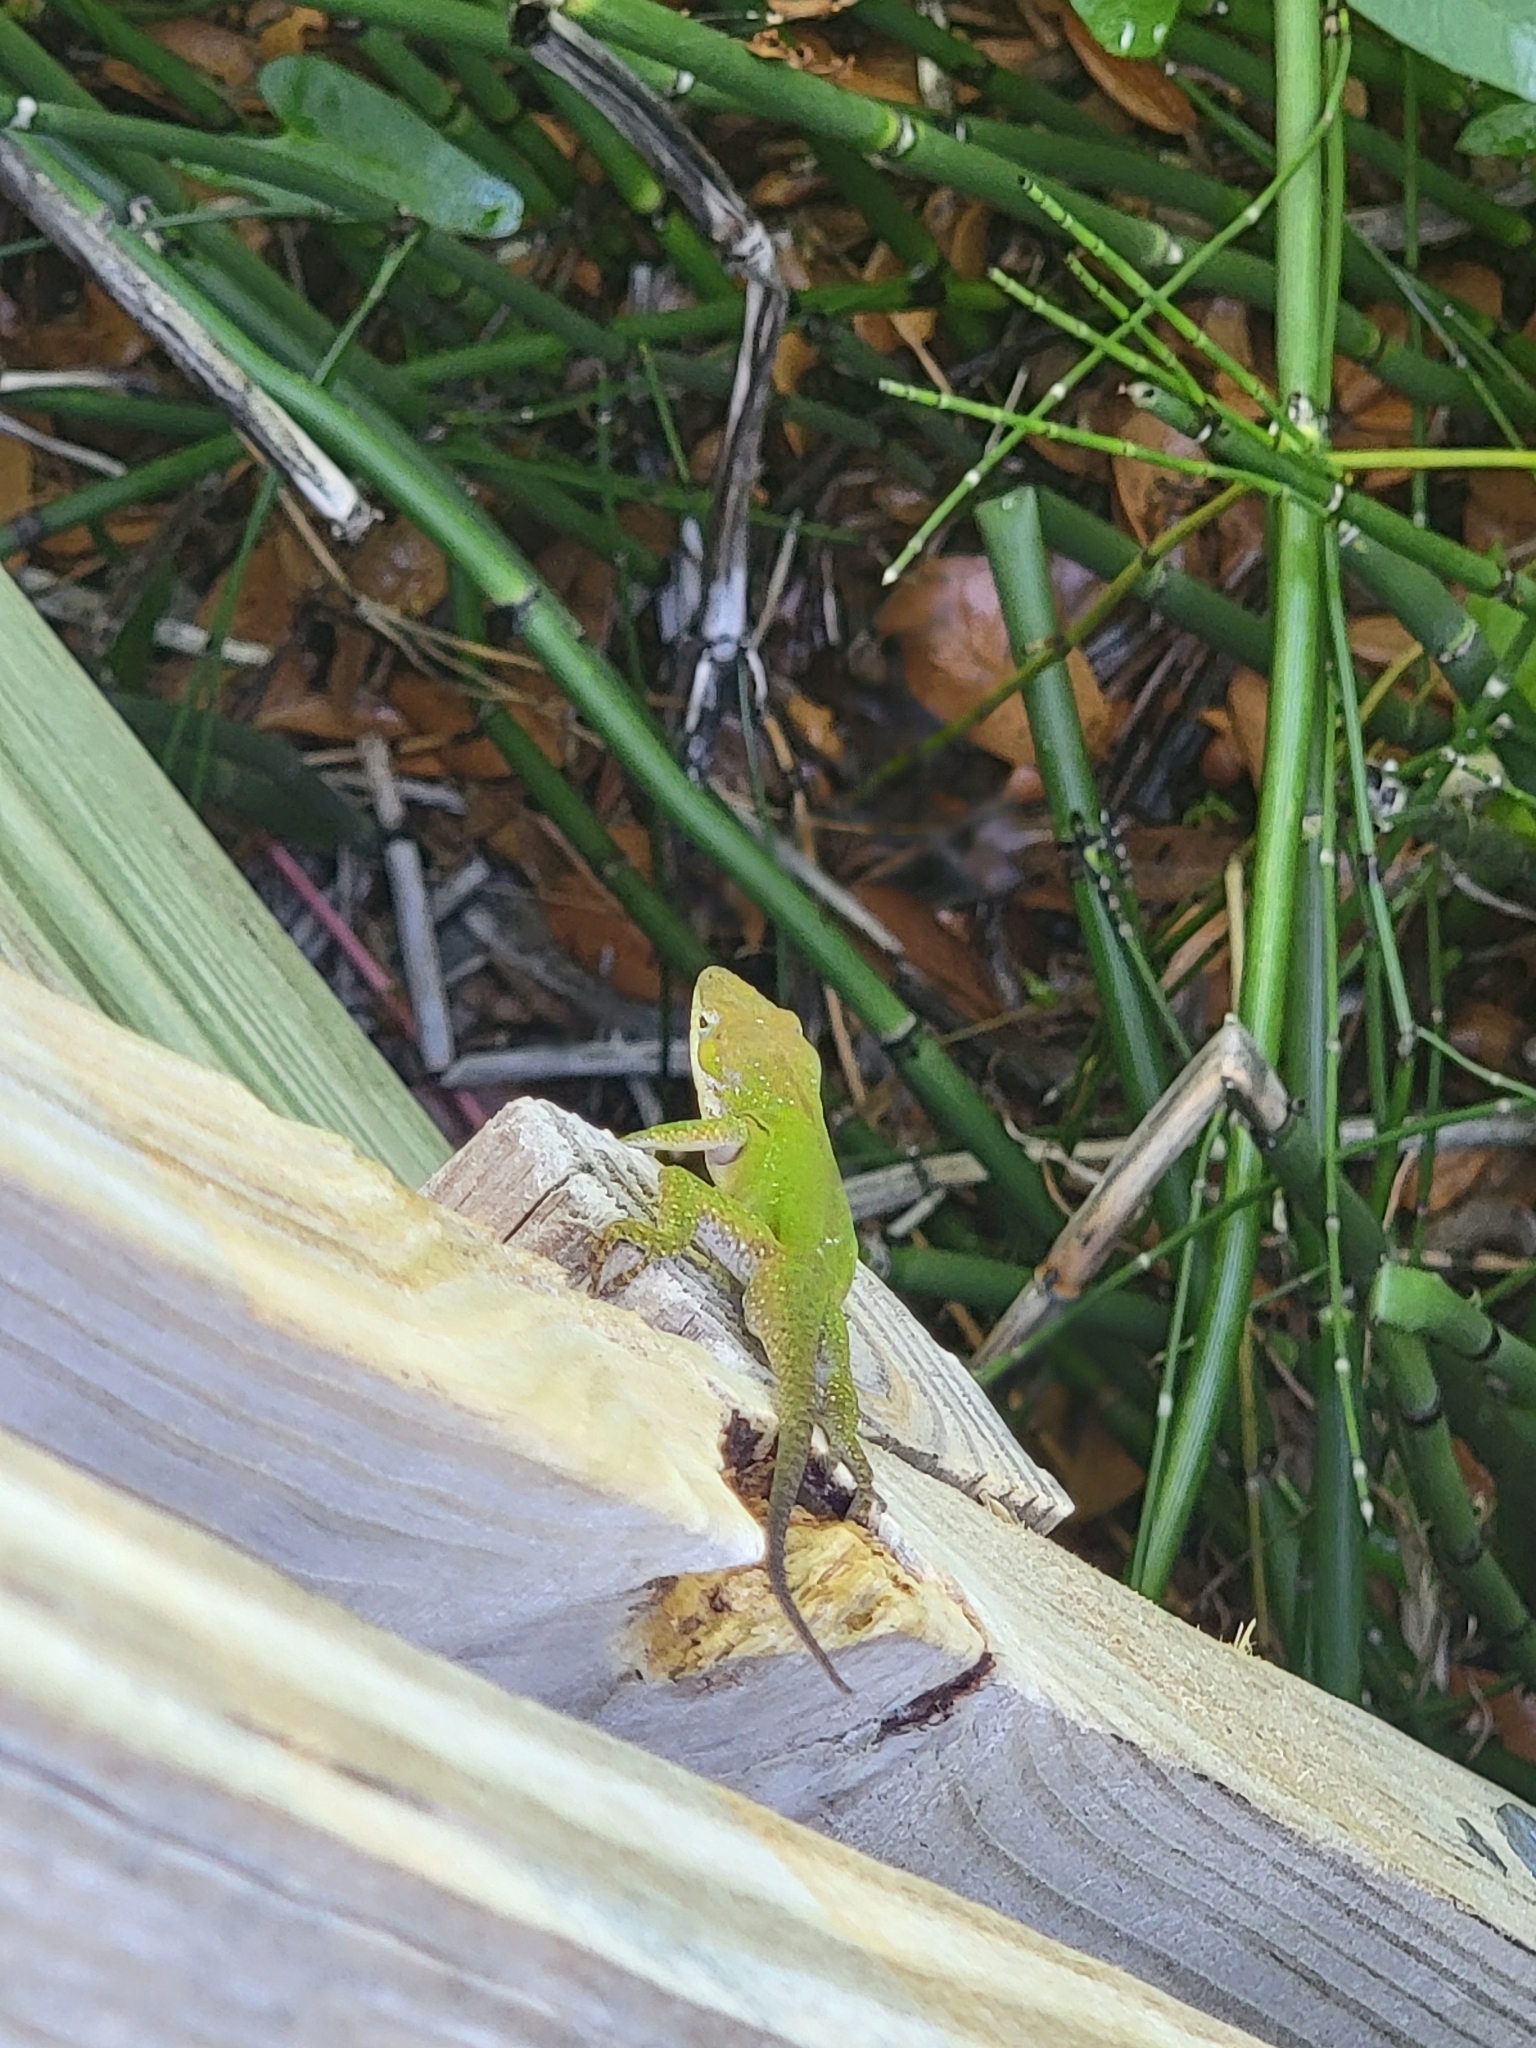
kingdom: Animalia
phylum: Chordata
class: Squamata
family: Dactyloidae
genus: Anolis
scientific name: Anolis carolinensis
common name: Green anole
